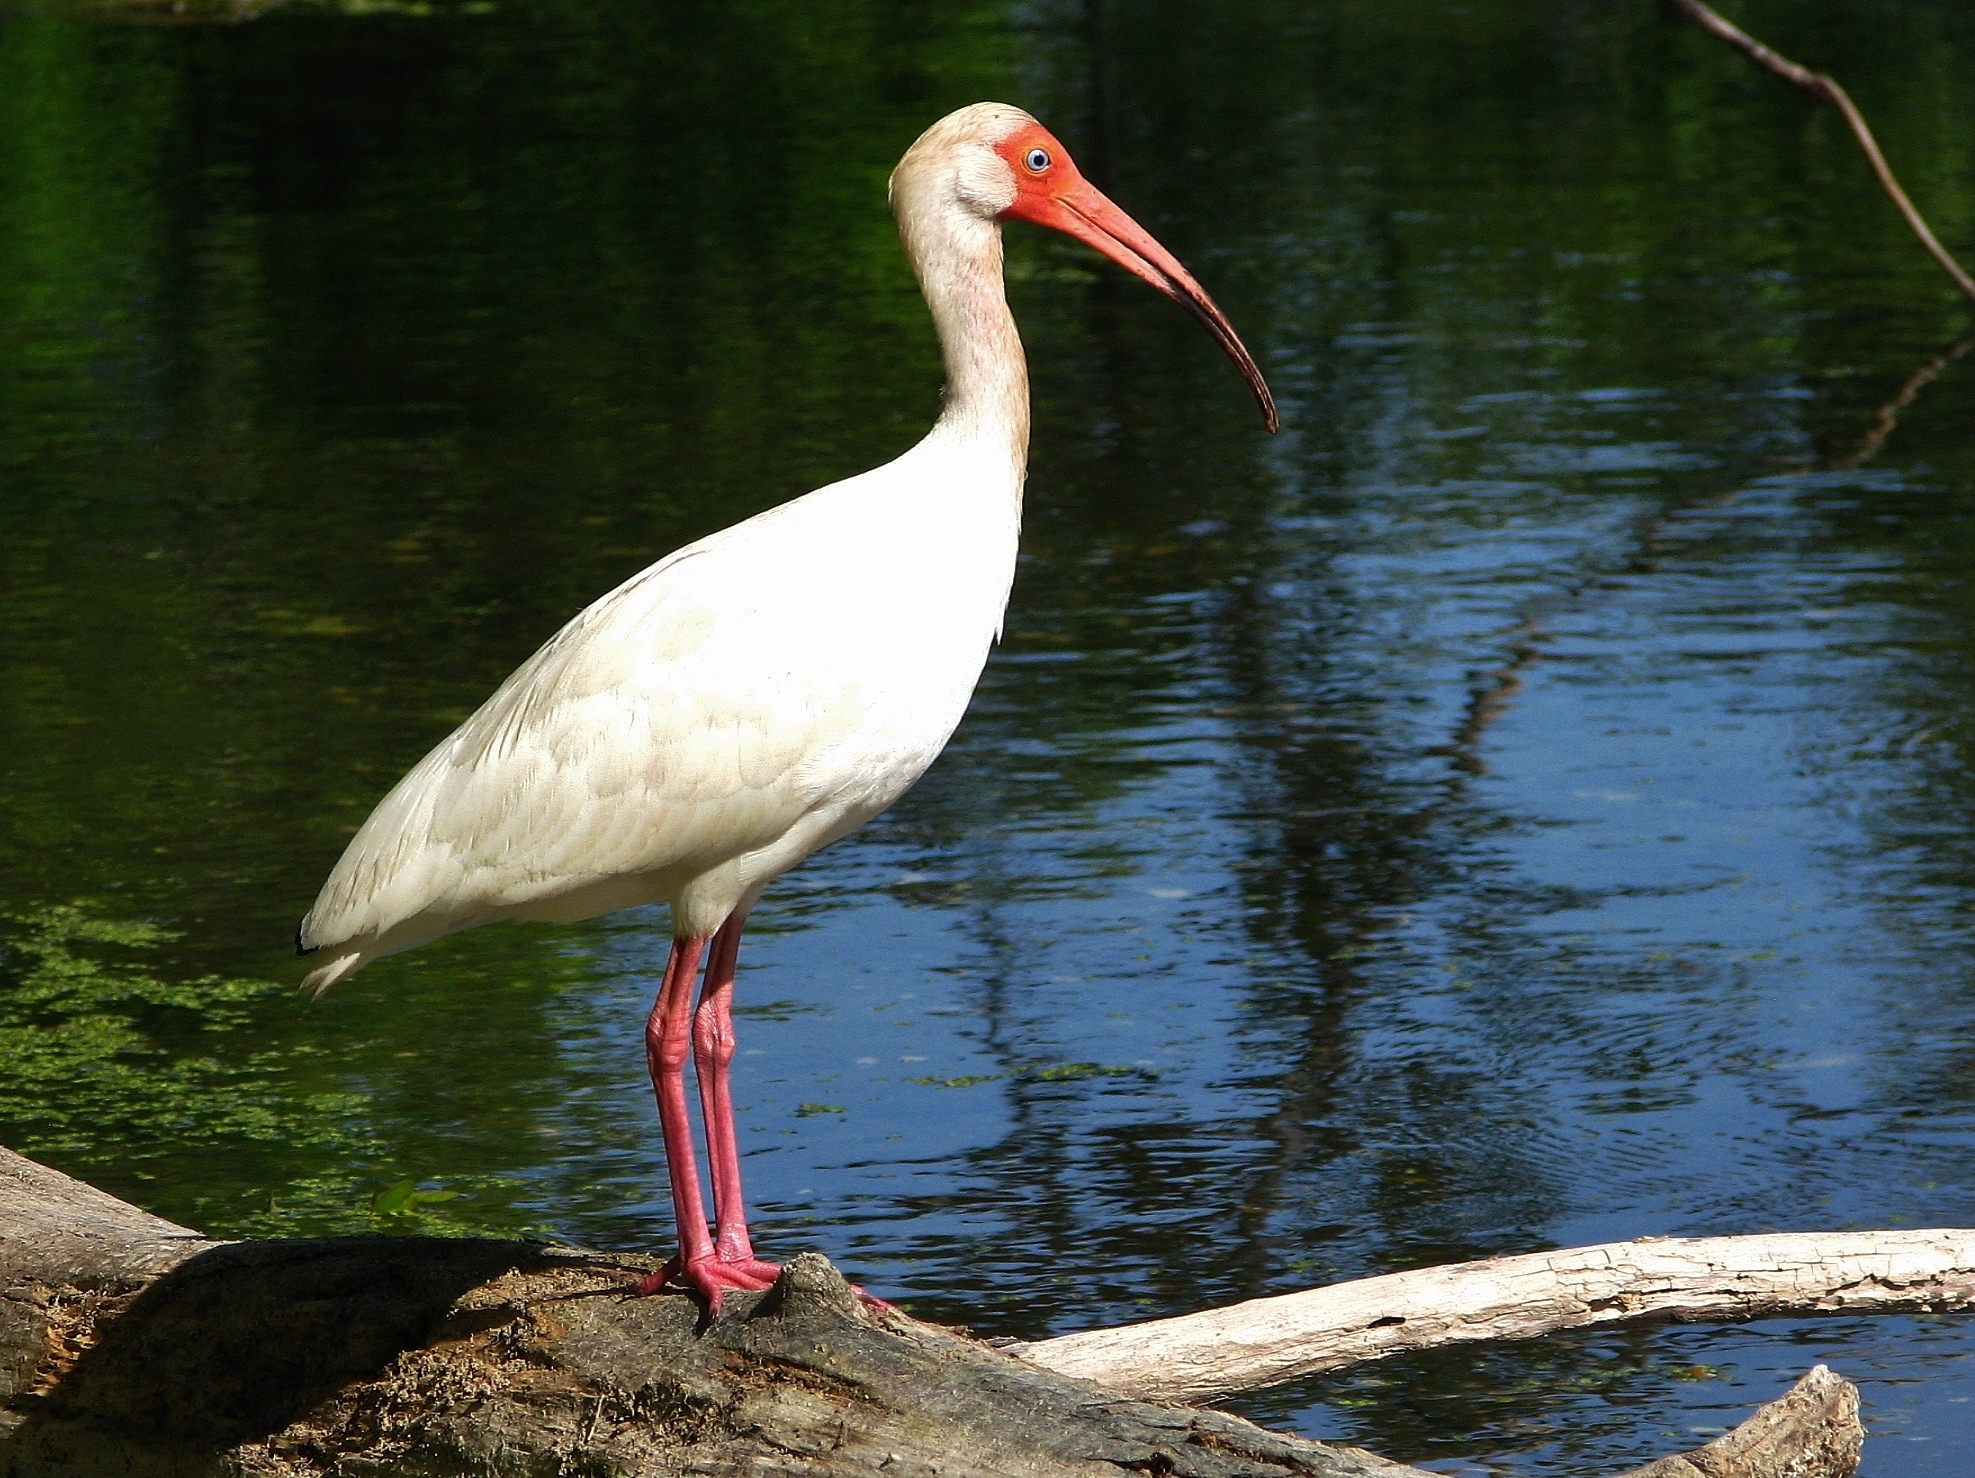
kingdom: Animalia
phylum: Chordata
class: Aves
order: Pelecaniformes
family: Threskiornithidae
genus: Eudocimus
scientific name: Eudocimus albus
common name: White ibis
